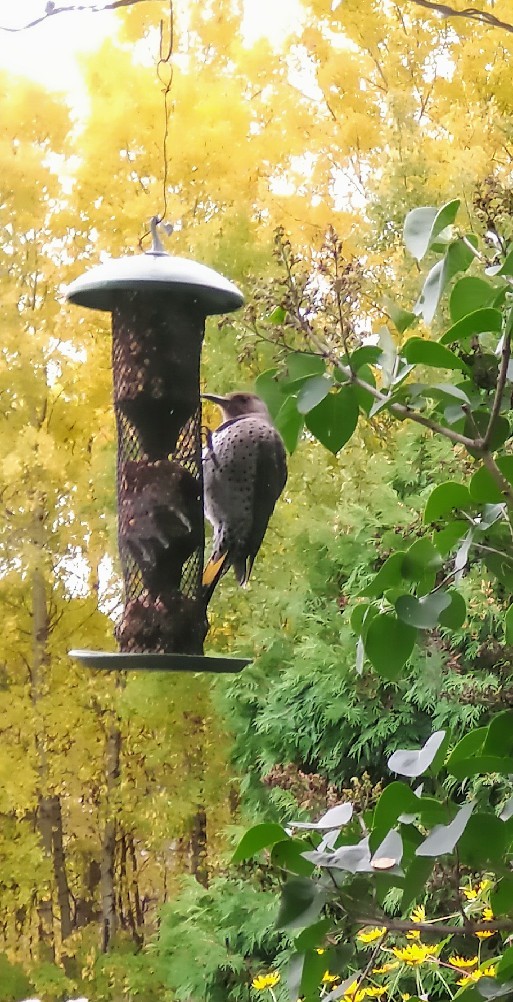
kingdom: Animalia
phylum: Chordata
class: Aves
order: Piciformes
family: Picidae
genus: Colaptes
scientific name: Colaptes auratus
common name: Northern flicker
